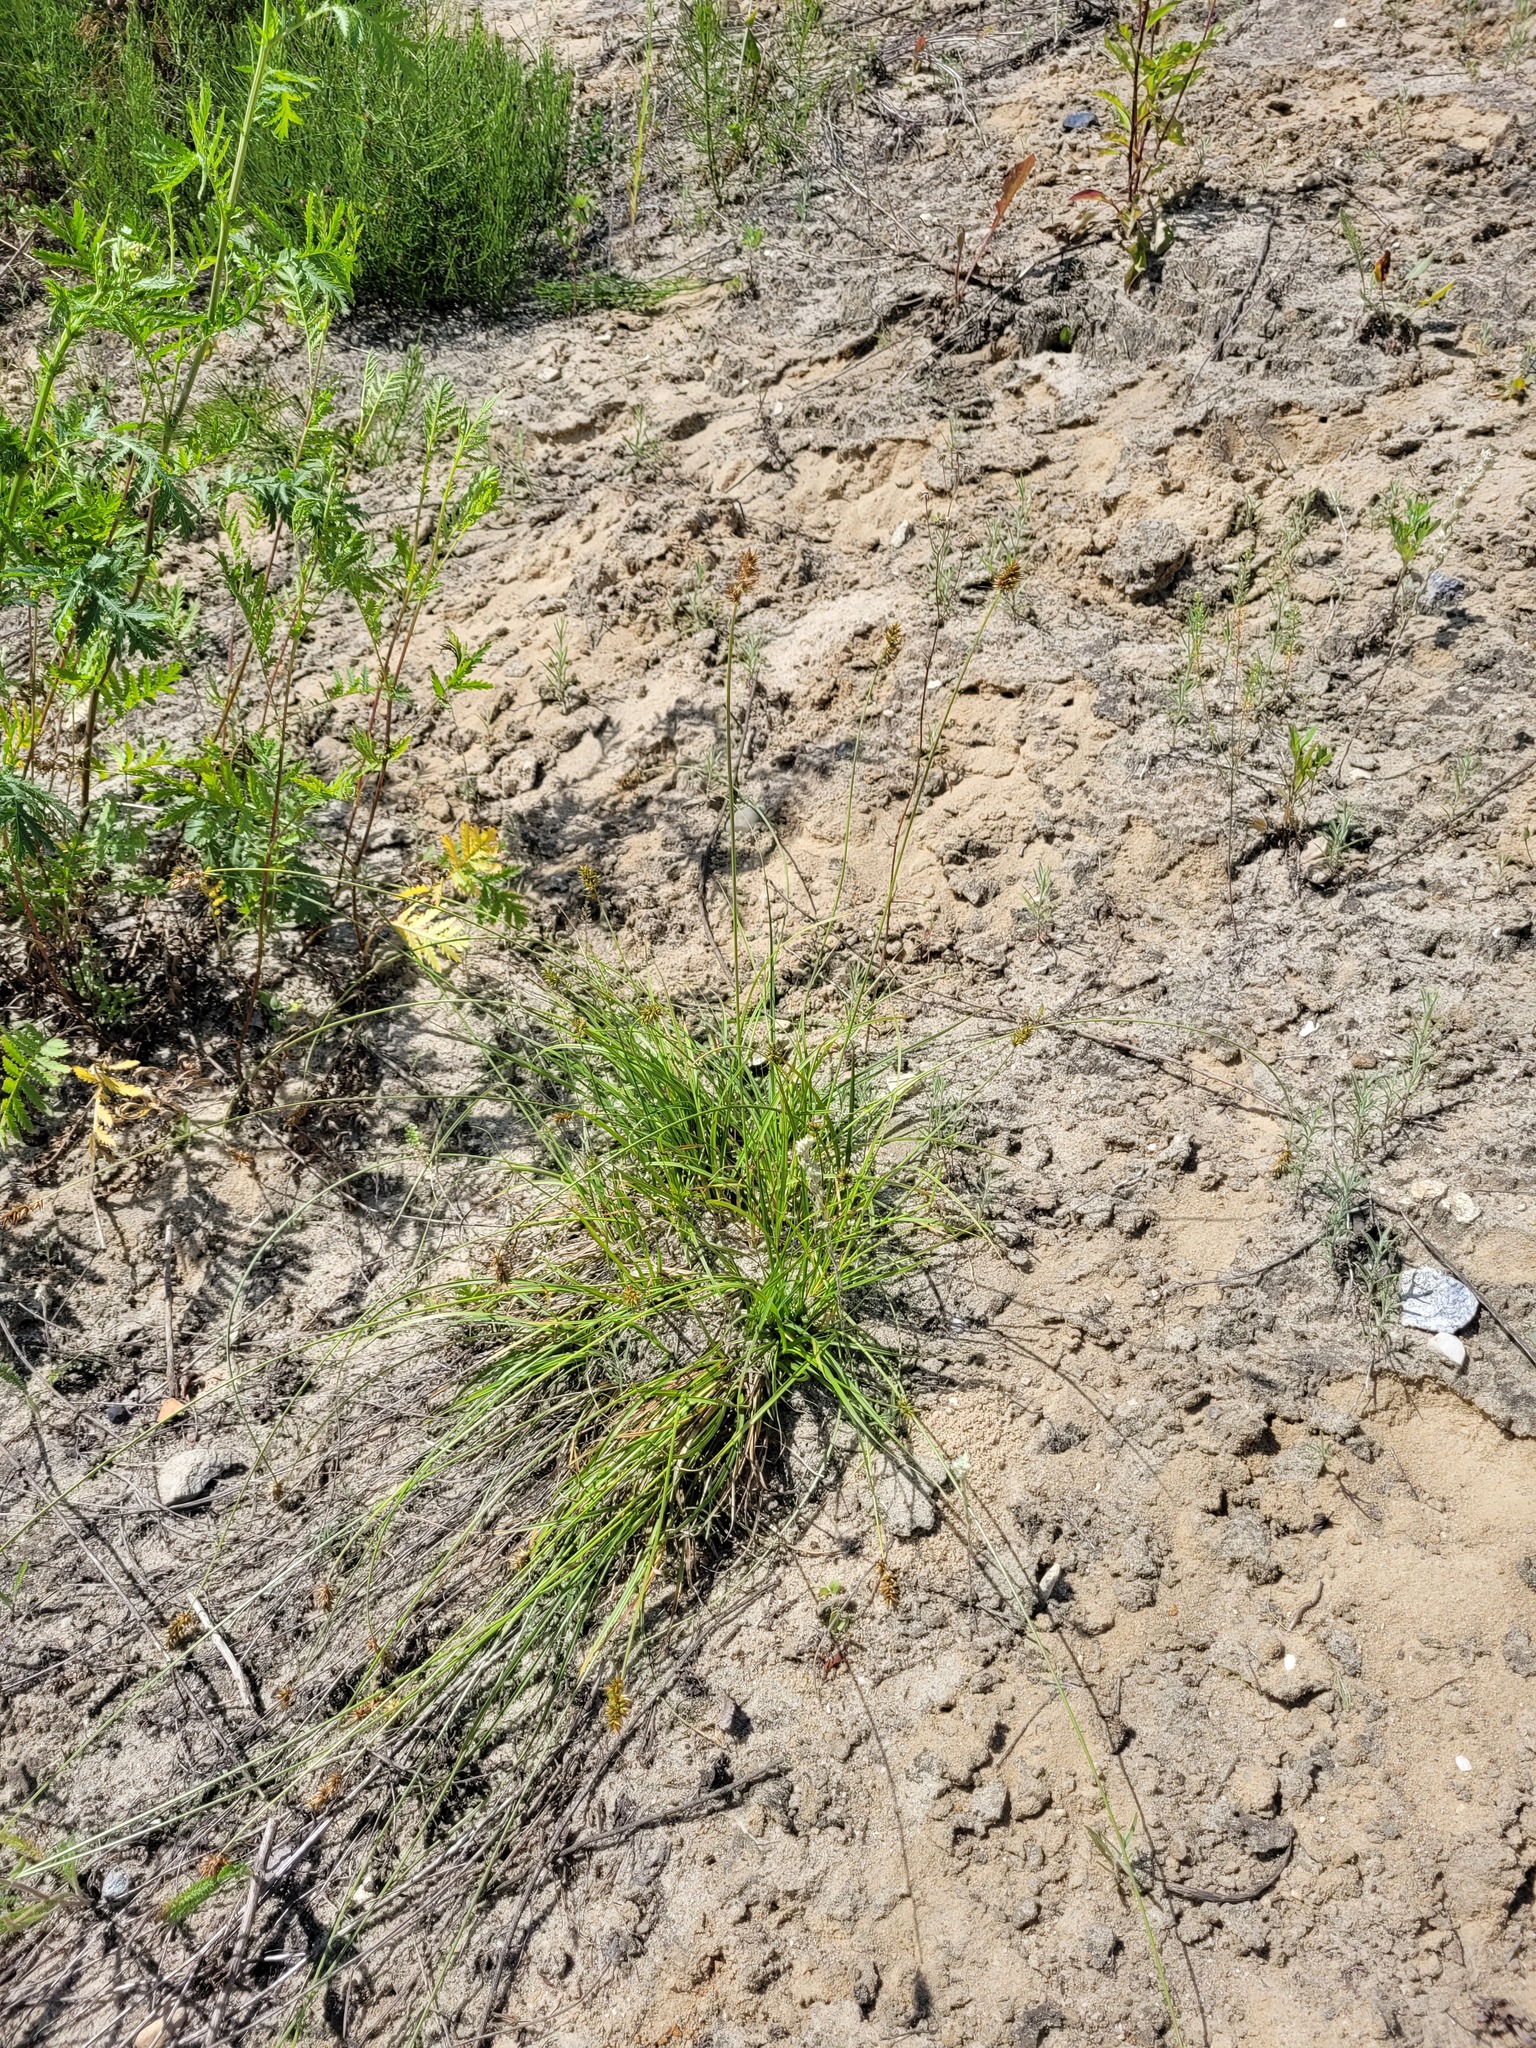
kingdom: Plantae
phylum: Tracheophyta
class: Liliopsida
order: Poales
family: Cyperaceae
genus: Carex
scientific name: Carex spicata
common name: Spiked sedge
